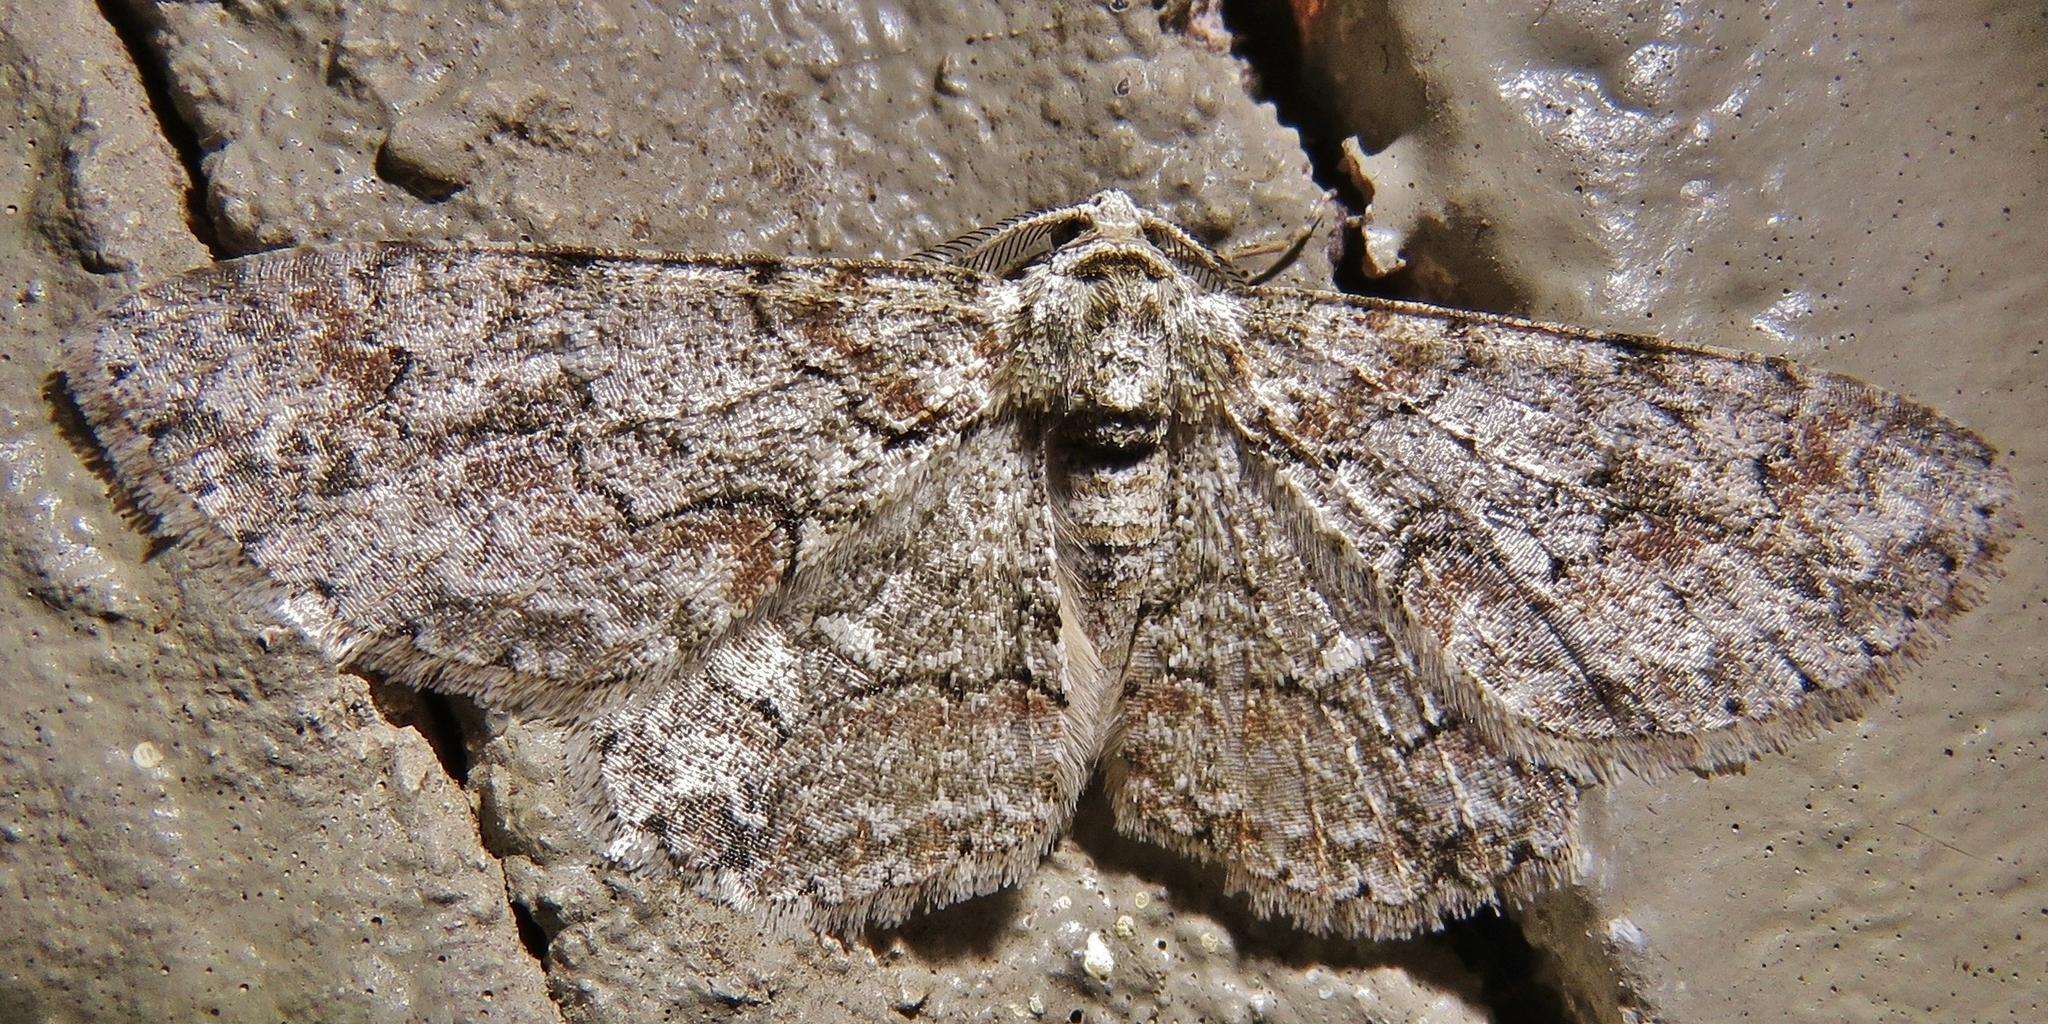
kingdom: Animalia
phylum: Arthropoda
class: Insecta
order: Lepidoptera
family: Geometridae
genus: Iridopsis
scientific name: Iridopsis defectaria
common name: Brown-shaded gray
